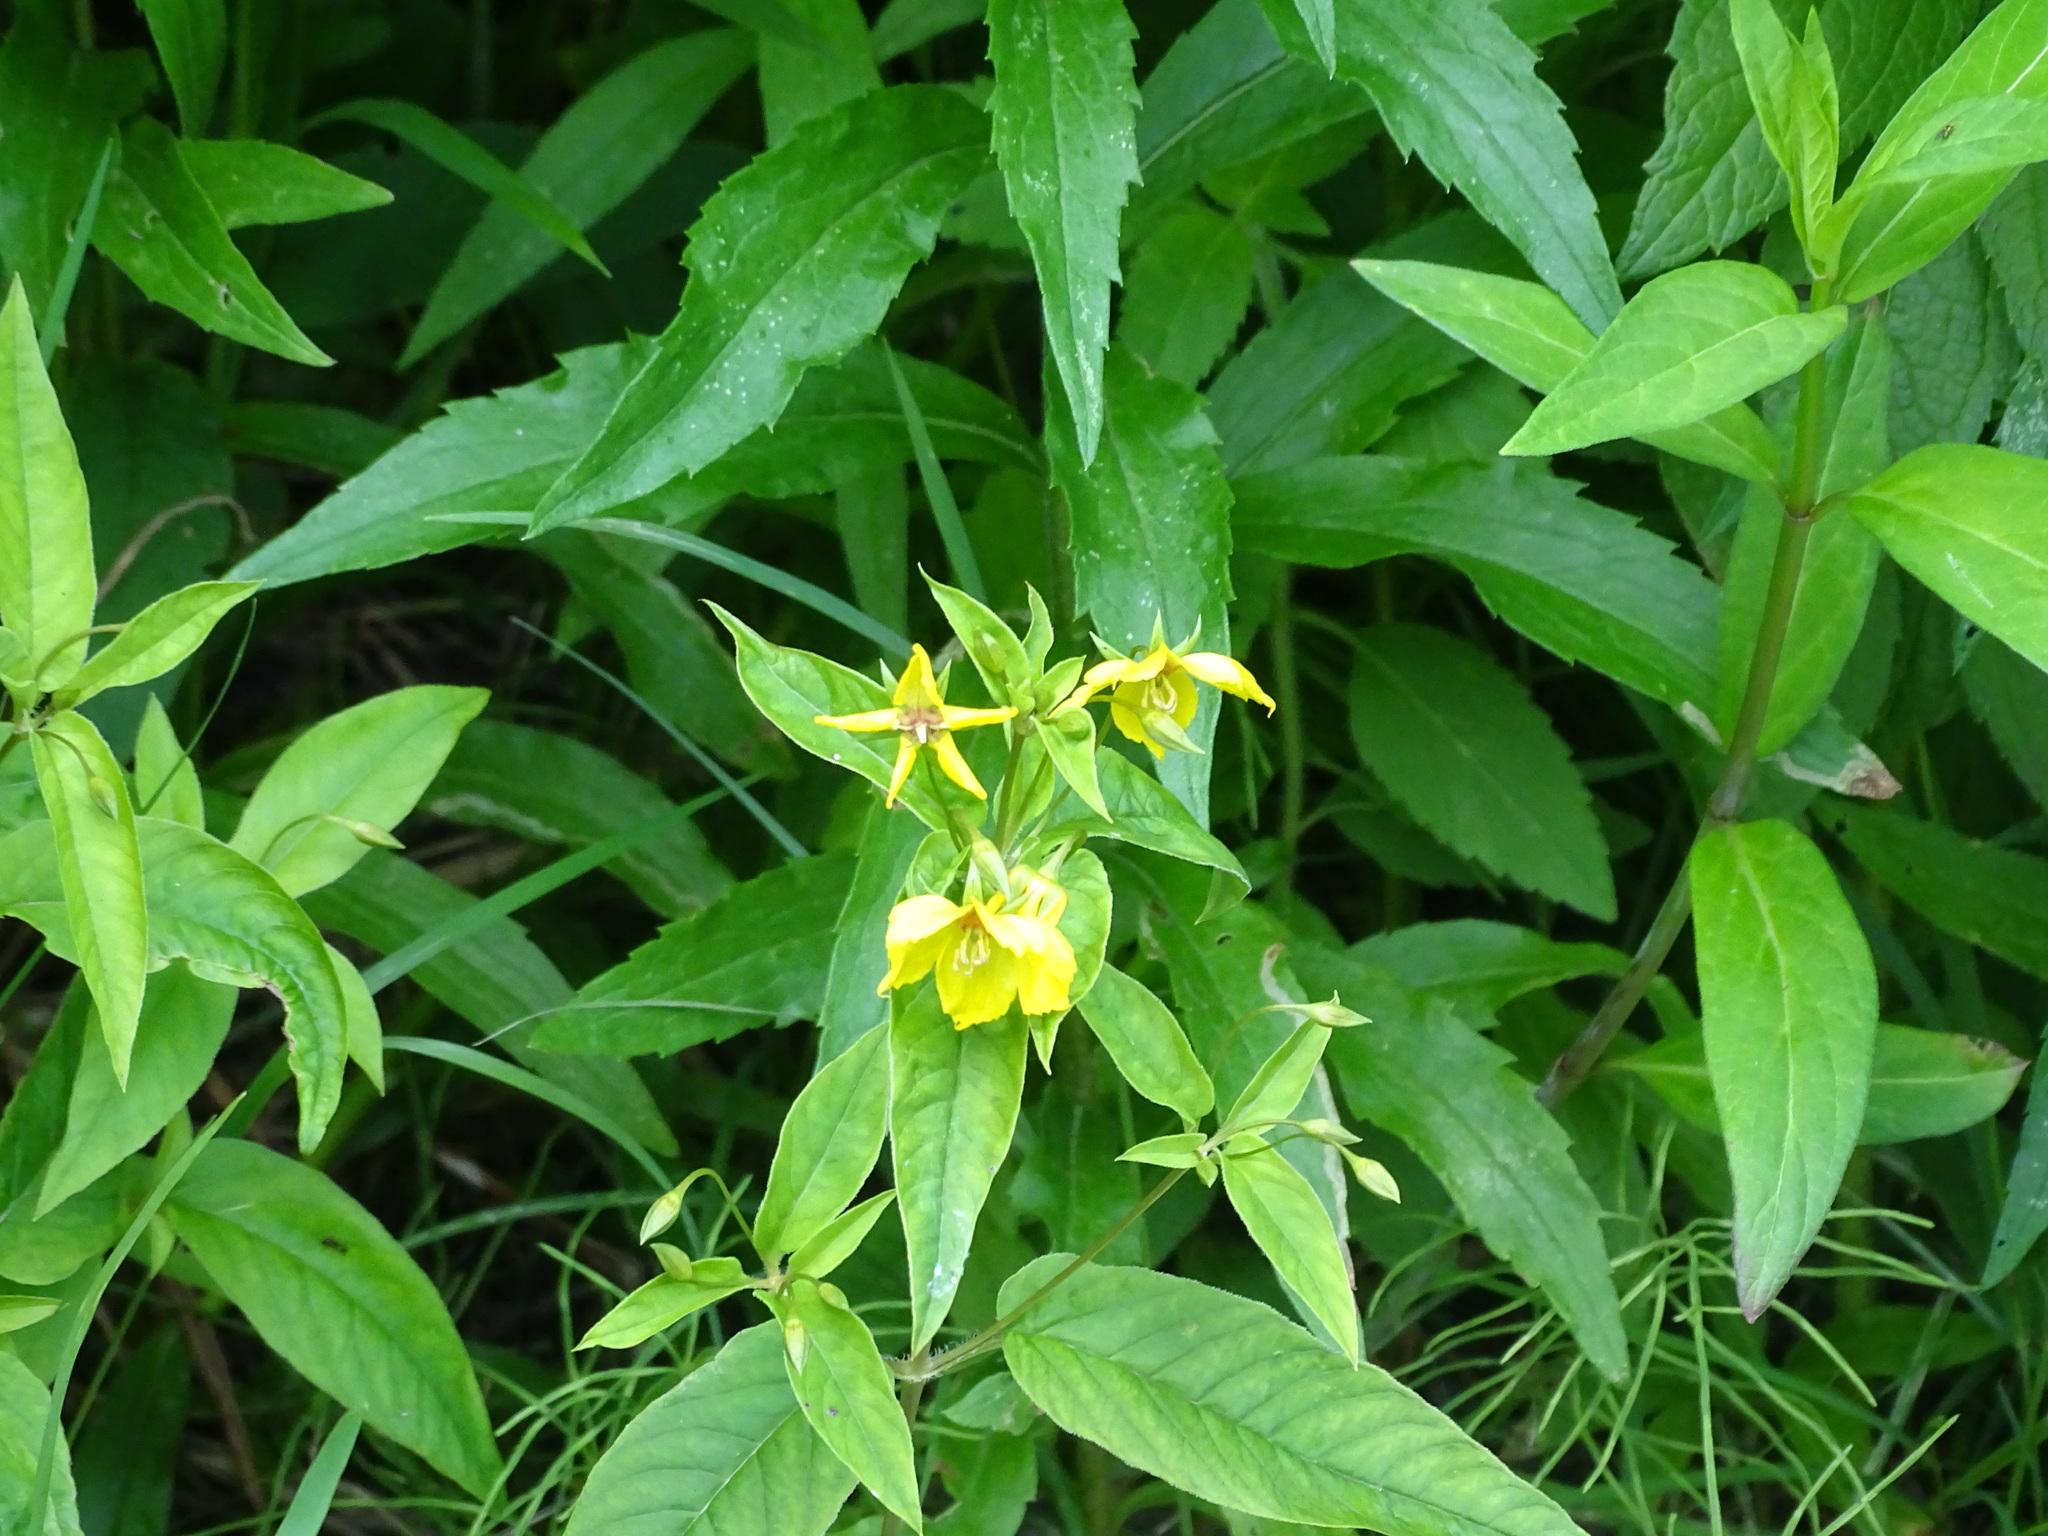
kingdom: Plantae
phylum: Tracheophyta
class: Magnoliopsida
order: Ericales
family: Primulaceae
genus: Lysimachia
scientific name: Lysimachia ciliata
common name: Fringed loosestrife
